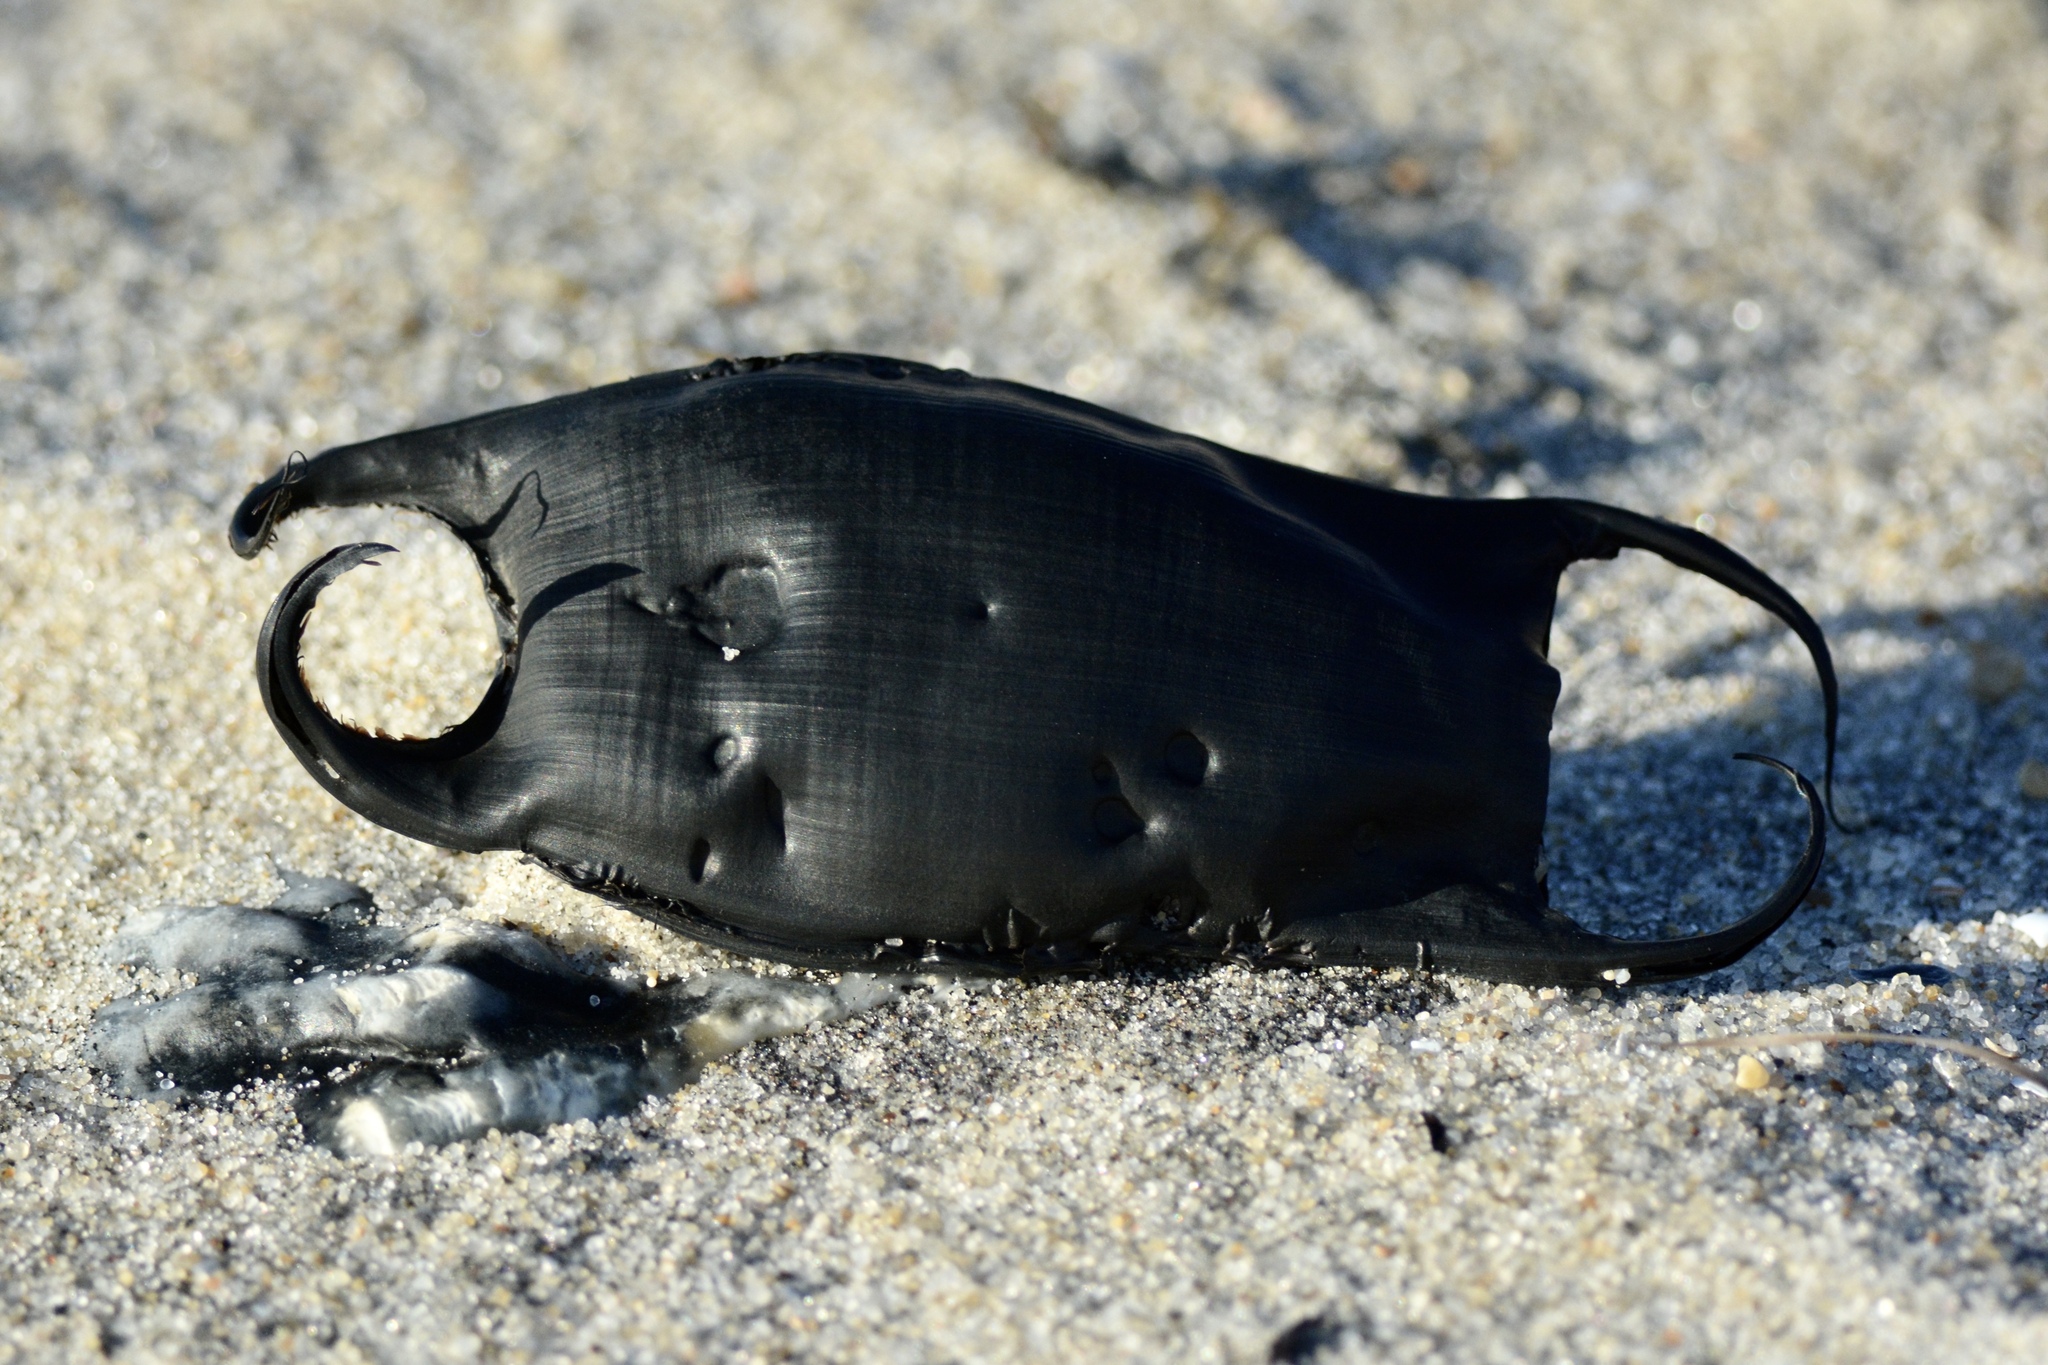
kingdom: Animalia
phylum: Chordata
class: Elasmobranchii
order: Rajiformes
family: Rajidae
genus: Raja
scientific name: Raja eglanteria
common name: Clearnose skate
